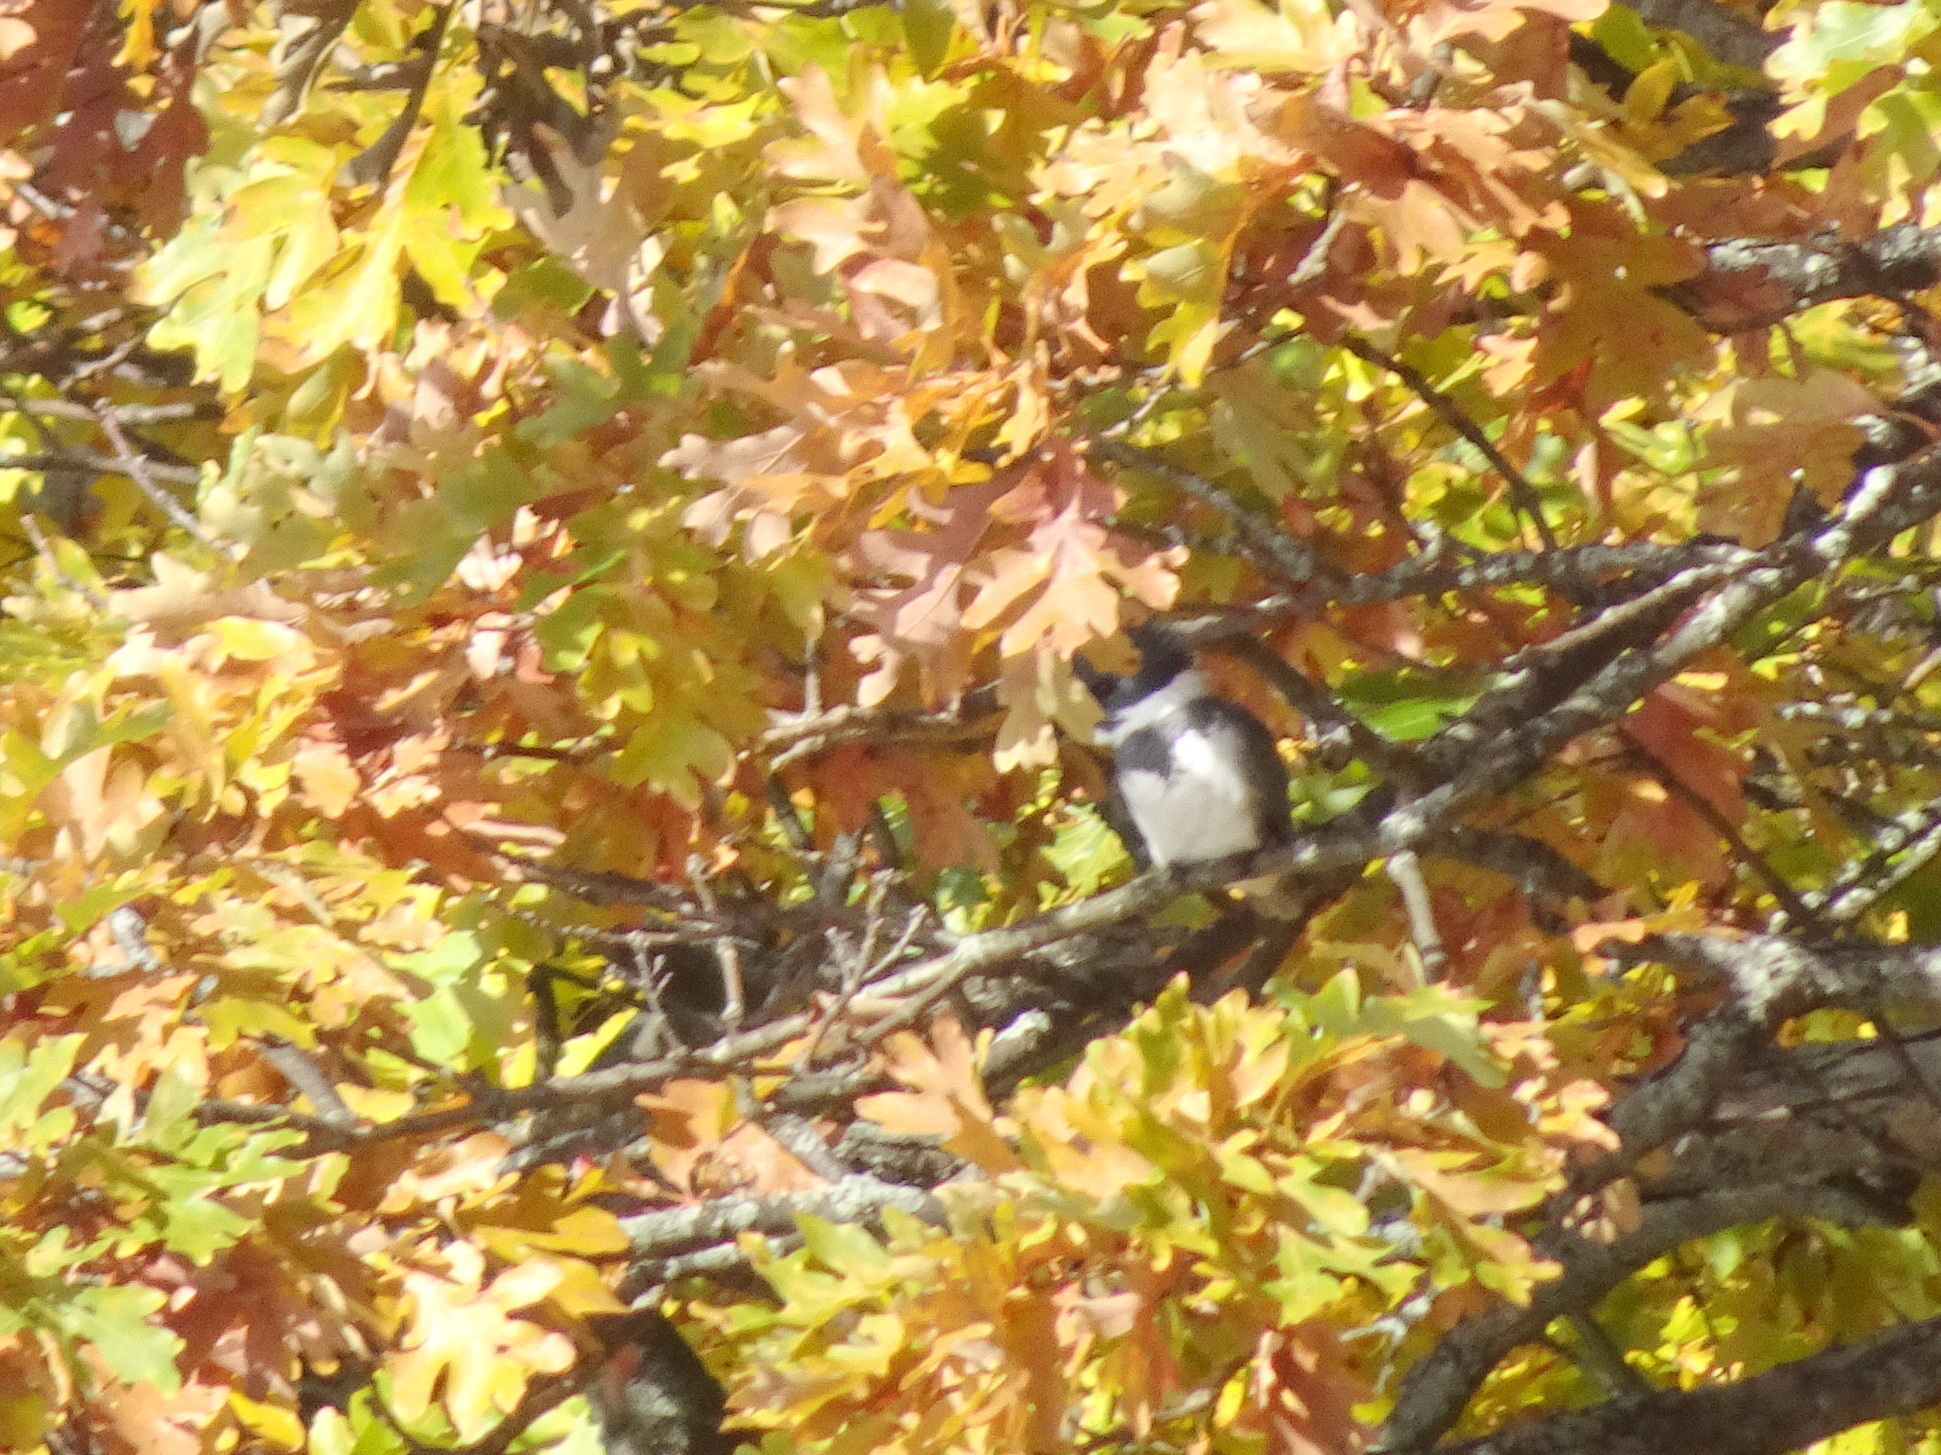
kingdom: Animalia
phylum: Chordata
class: Aves
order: Coraciiformes
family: Alcedinidae
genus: Megaceryle
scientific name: Megaceryle alcyon
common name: Belted kingfisher
